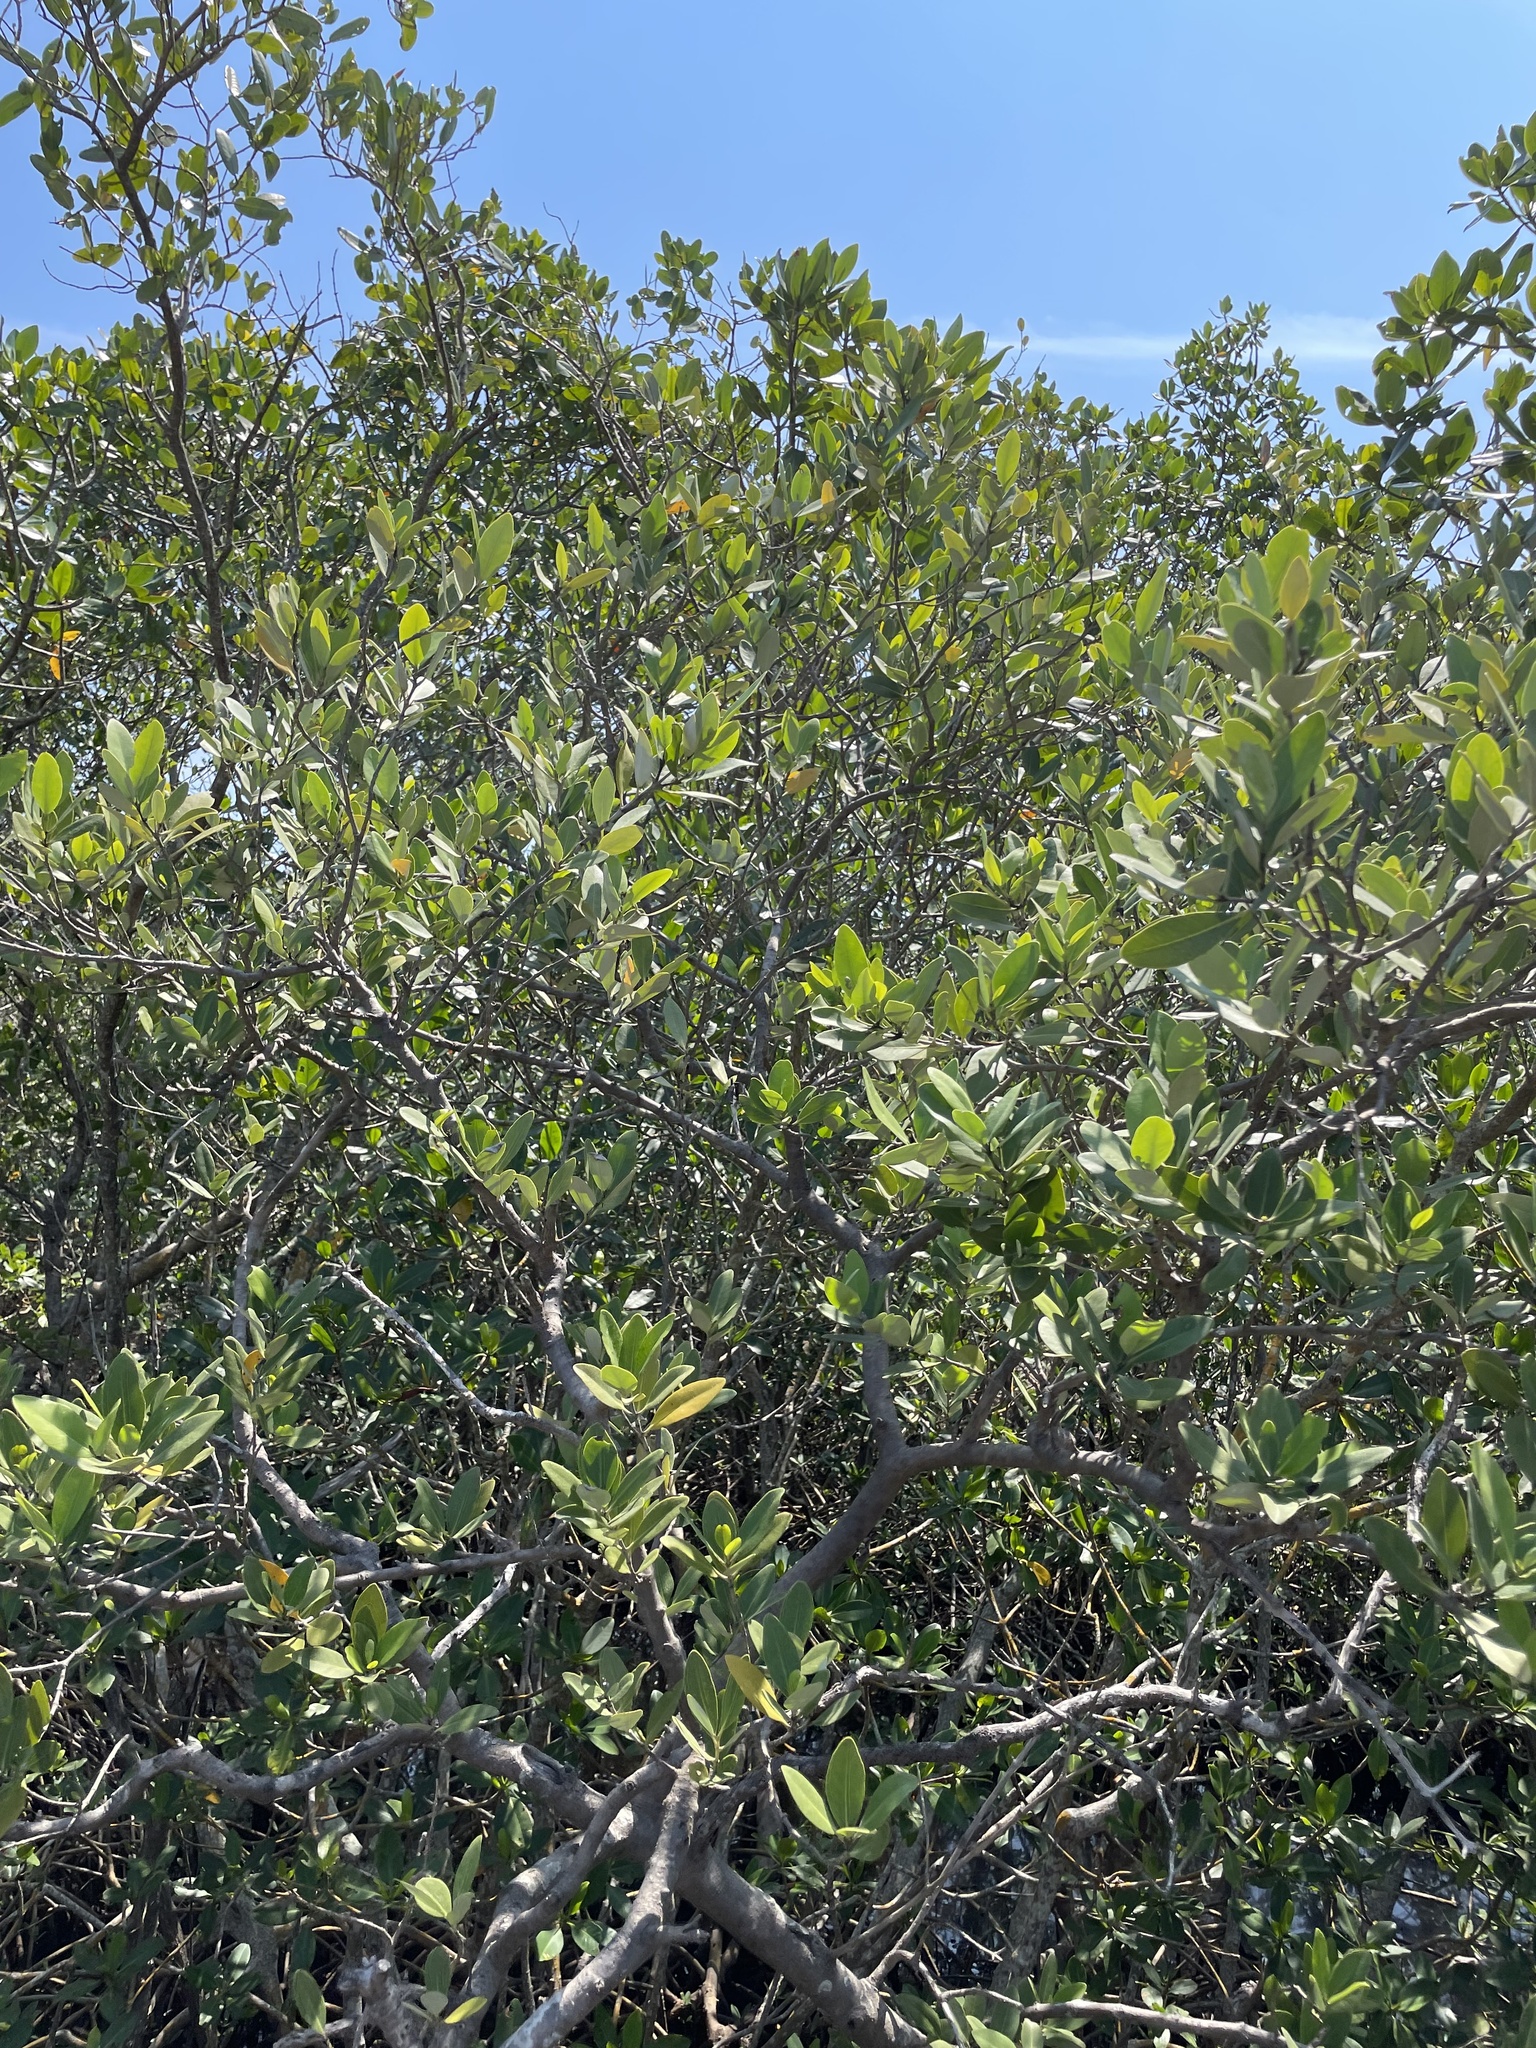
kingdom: Plantae
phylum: Tracheophyta
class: Magnoliopsida
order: Malpighiales
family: Rhizophoraceae
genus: Rhizophora
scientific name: Rhizophora mangle
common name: Red mangrove
